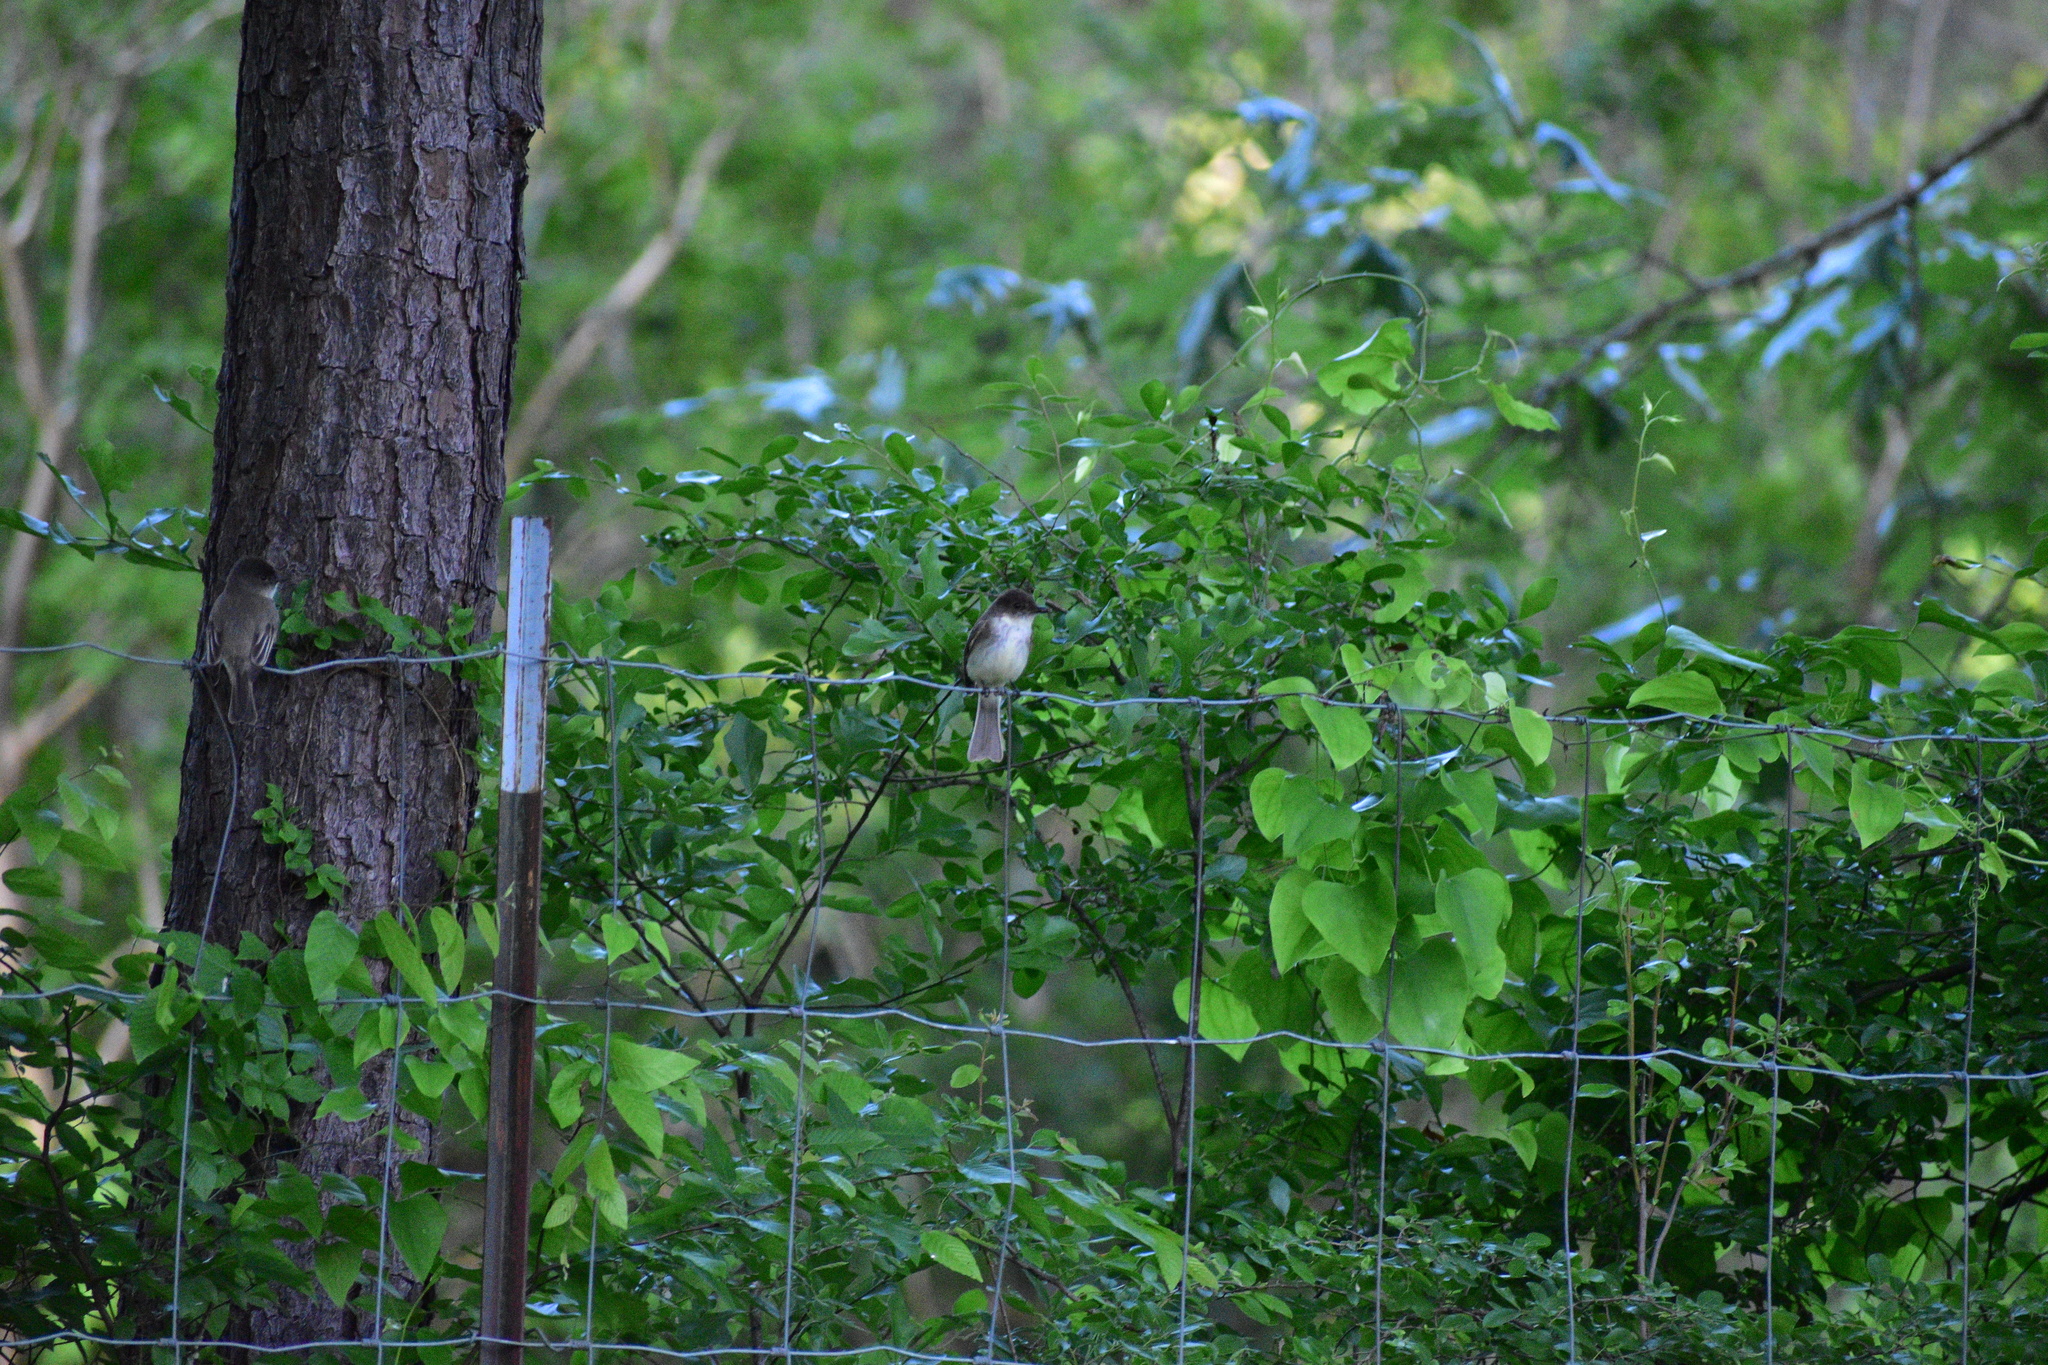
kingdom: Animalia
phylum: Chordata
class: Aves
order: Passeriformes
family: Tyrannidae
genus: Tyrannus
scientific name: Tyrannus tyrannus
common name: Eastern kingbird
